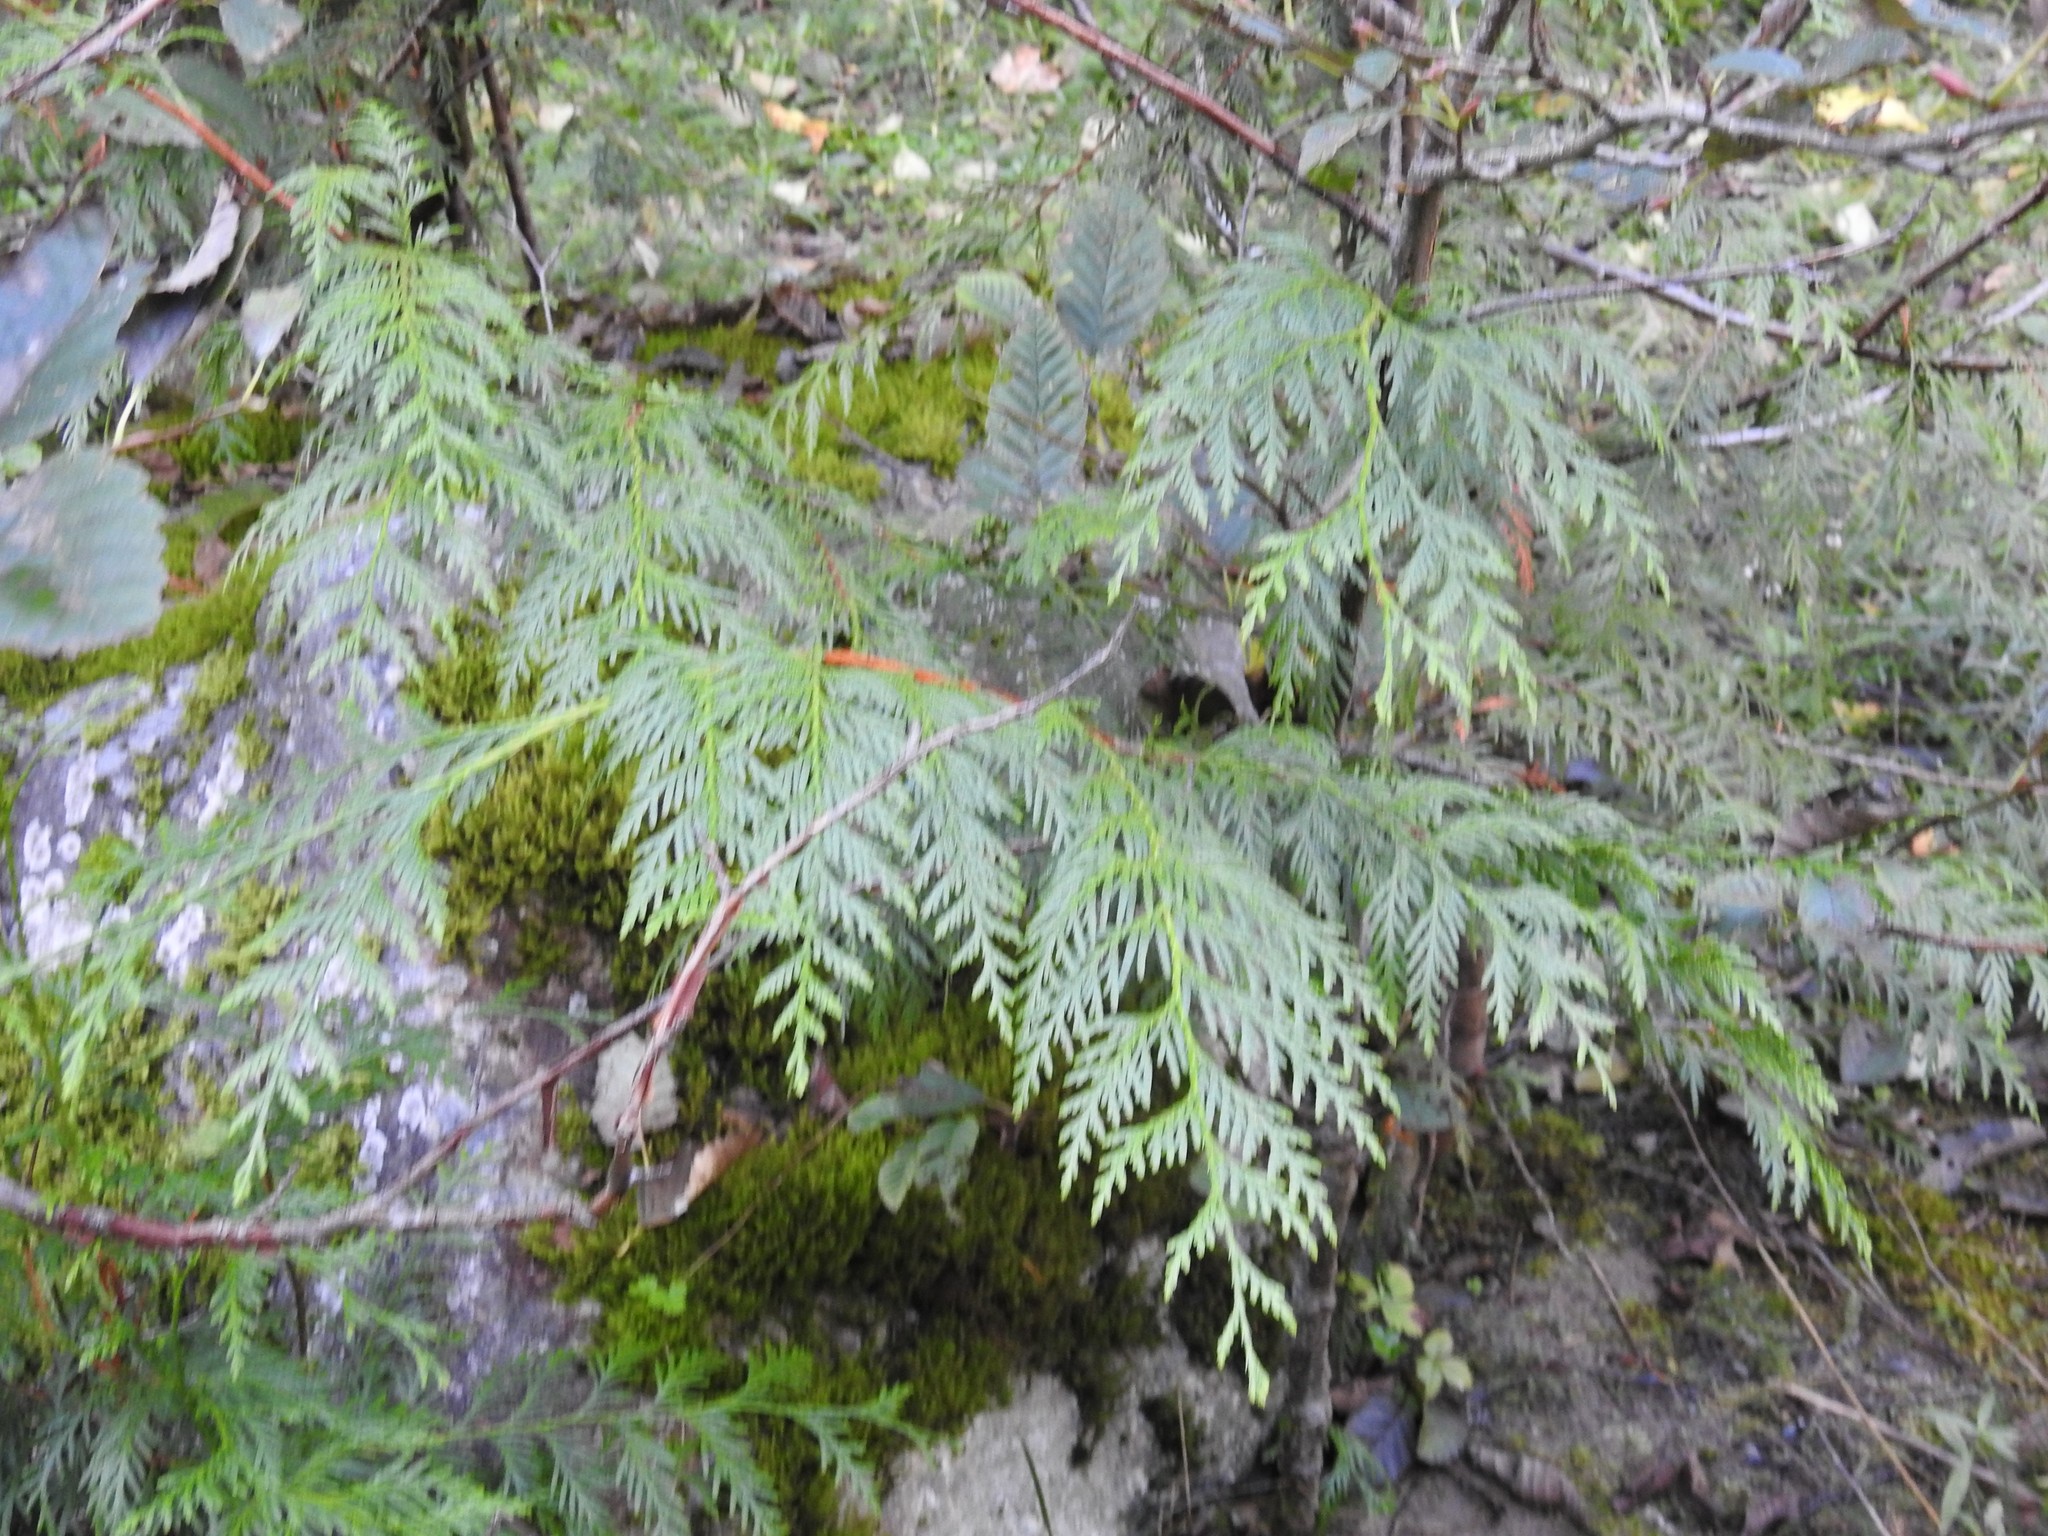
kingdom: Plantae
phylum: Tracheophyta
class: Pinopsida
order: Pinales
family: Cupressaceae
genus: Thuja
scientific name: Thuja plicata
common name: Western red-cedar
